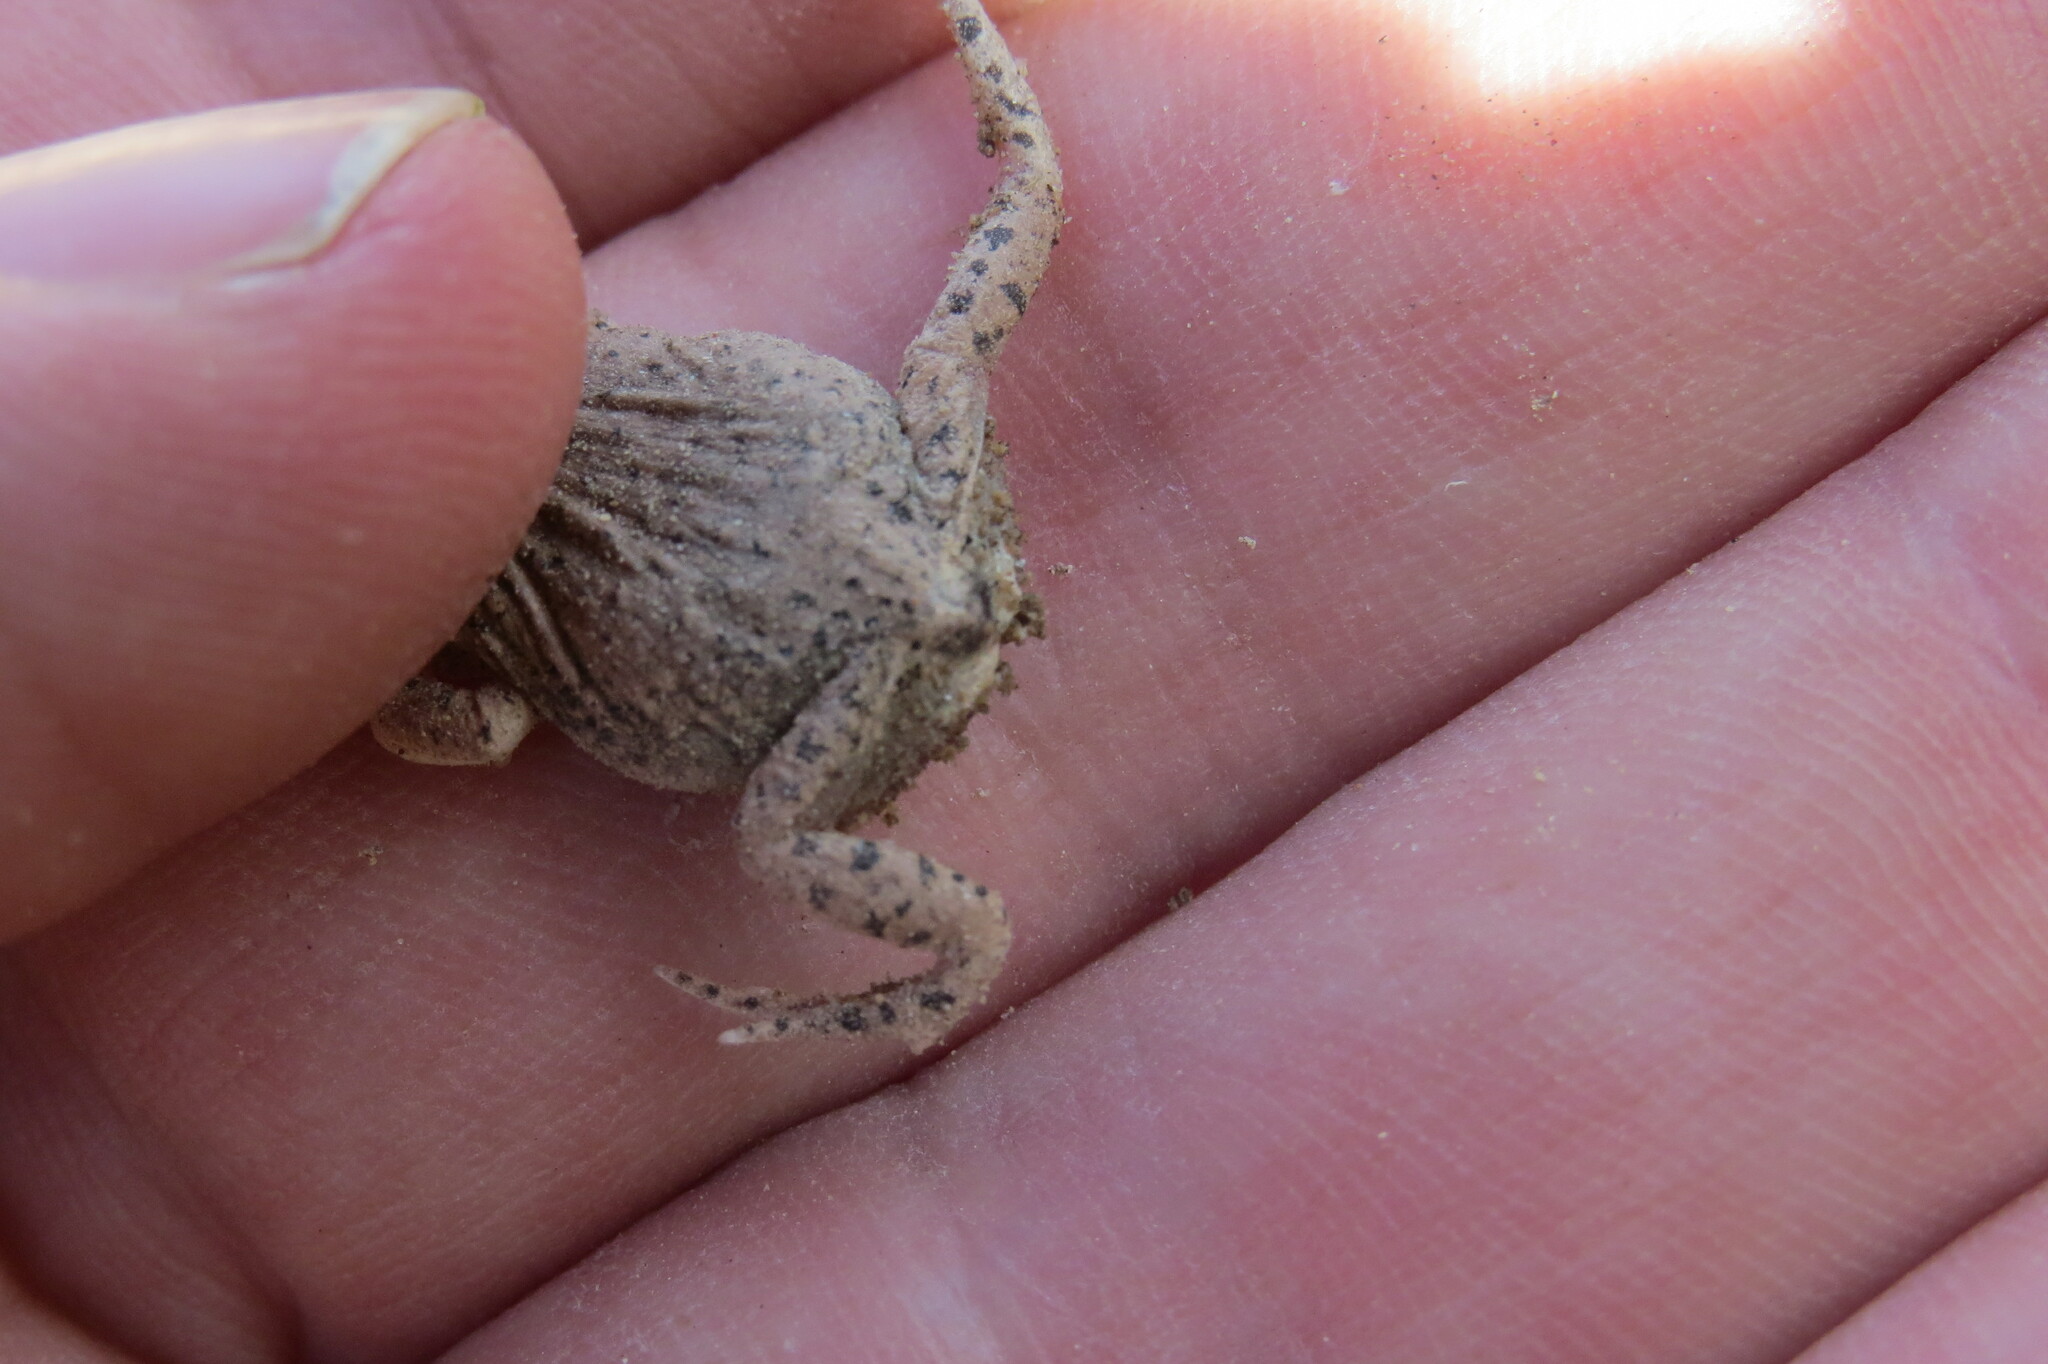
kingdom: Animalia
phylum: Chordata
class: Amphibia
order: Anura
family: Leptodactylidae
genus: Pleurodema
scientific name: Pleurodema nebulosum
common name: Mendoza four-eyed frog
